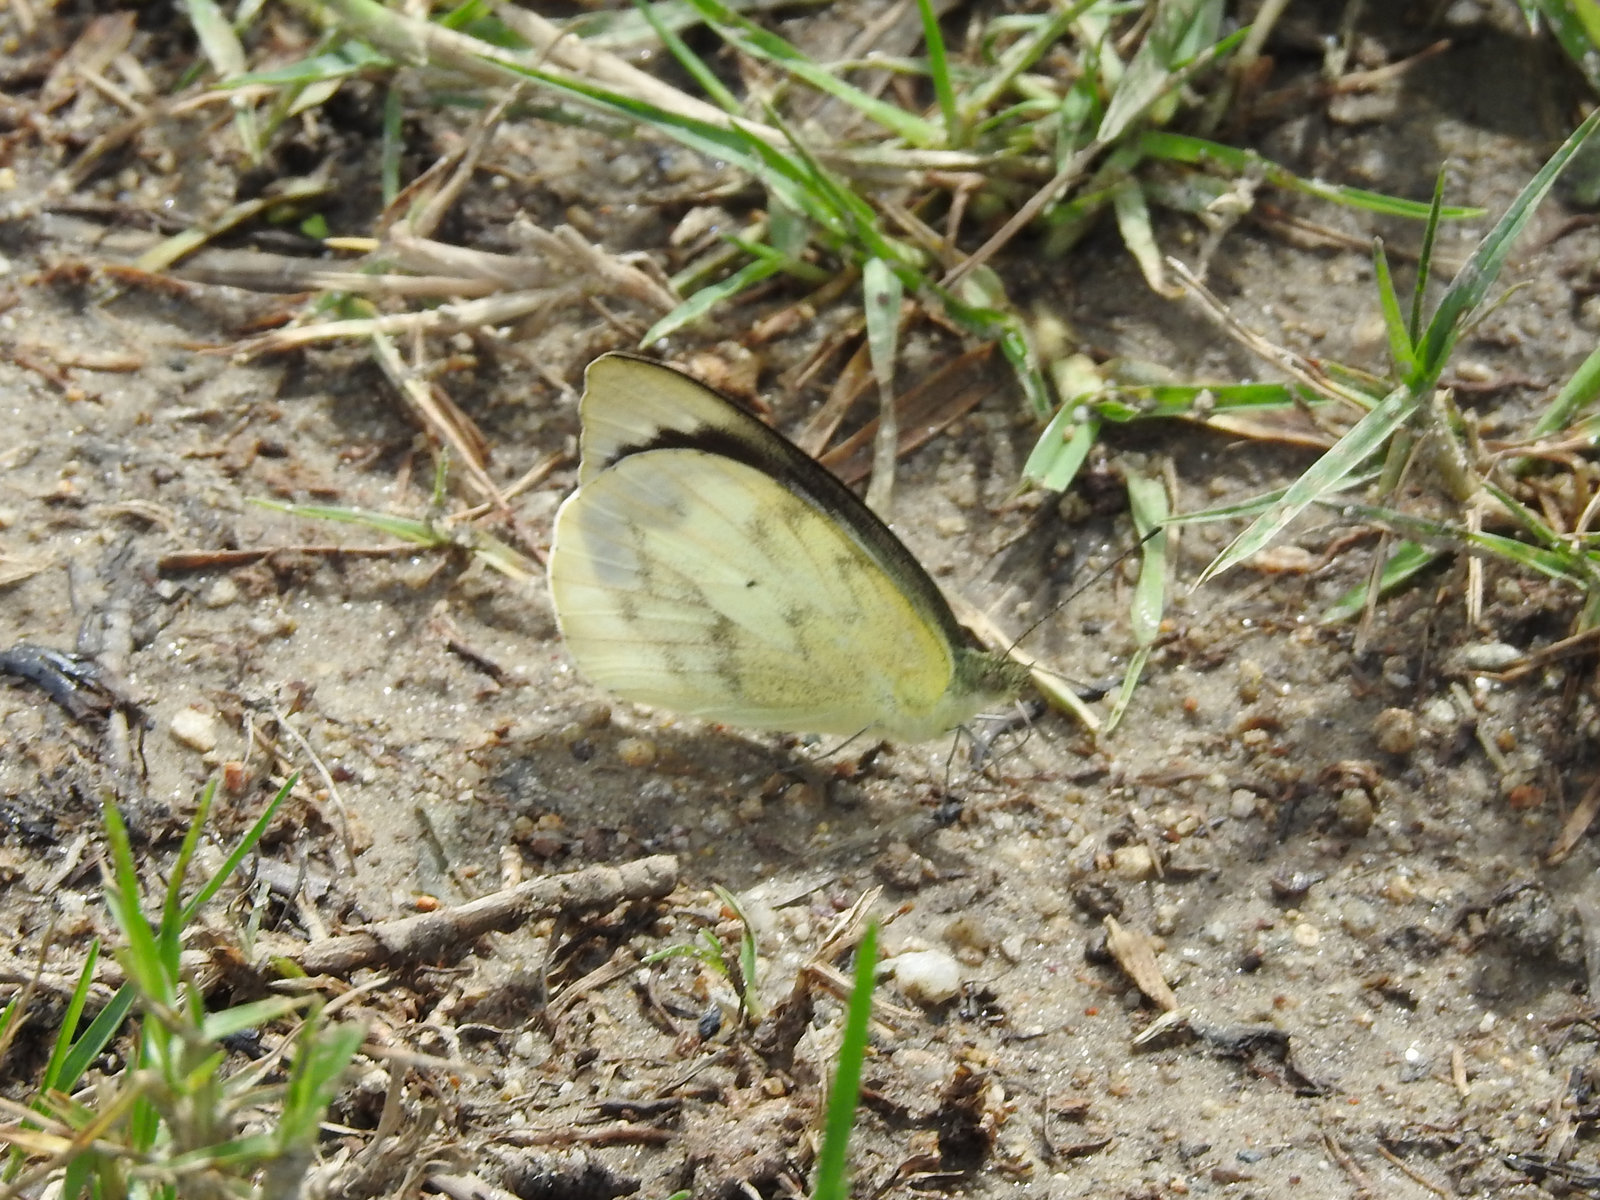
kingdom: Animalia
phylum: Arthropoda
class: Insecta
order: Lepidoptera
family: Pieridae
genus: Appias
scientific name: Appias indra
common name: Plain puffin
